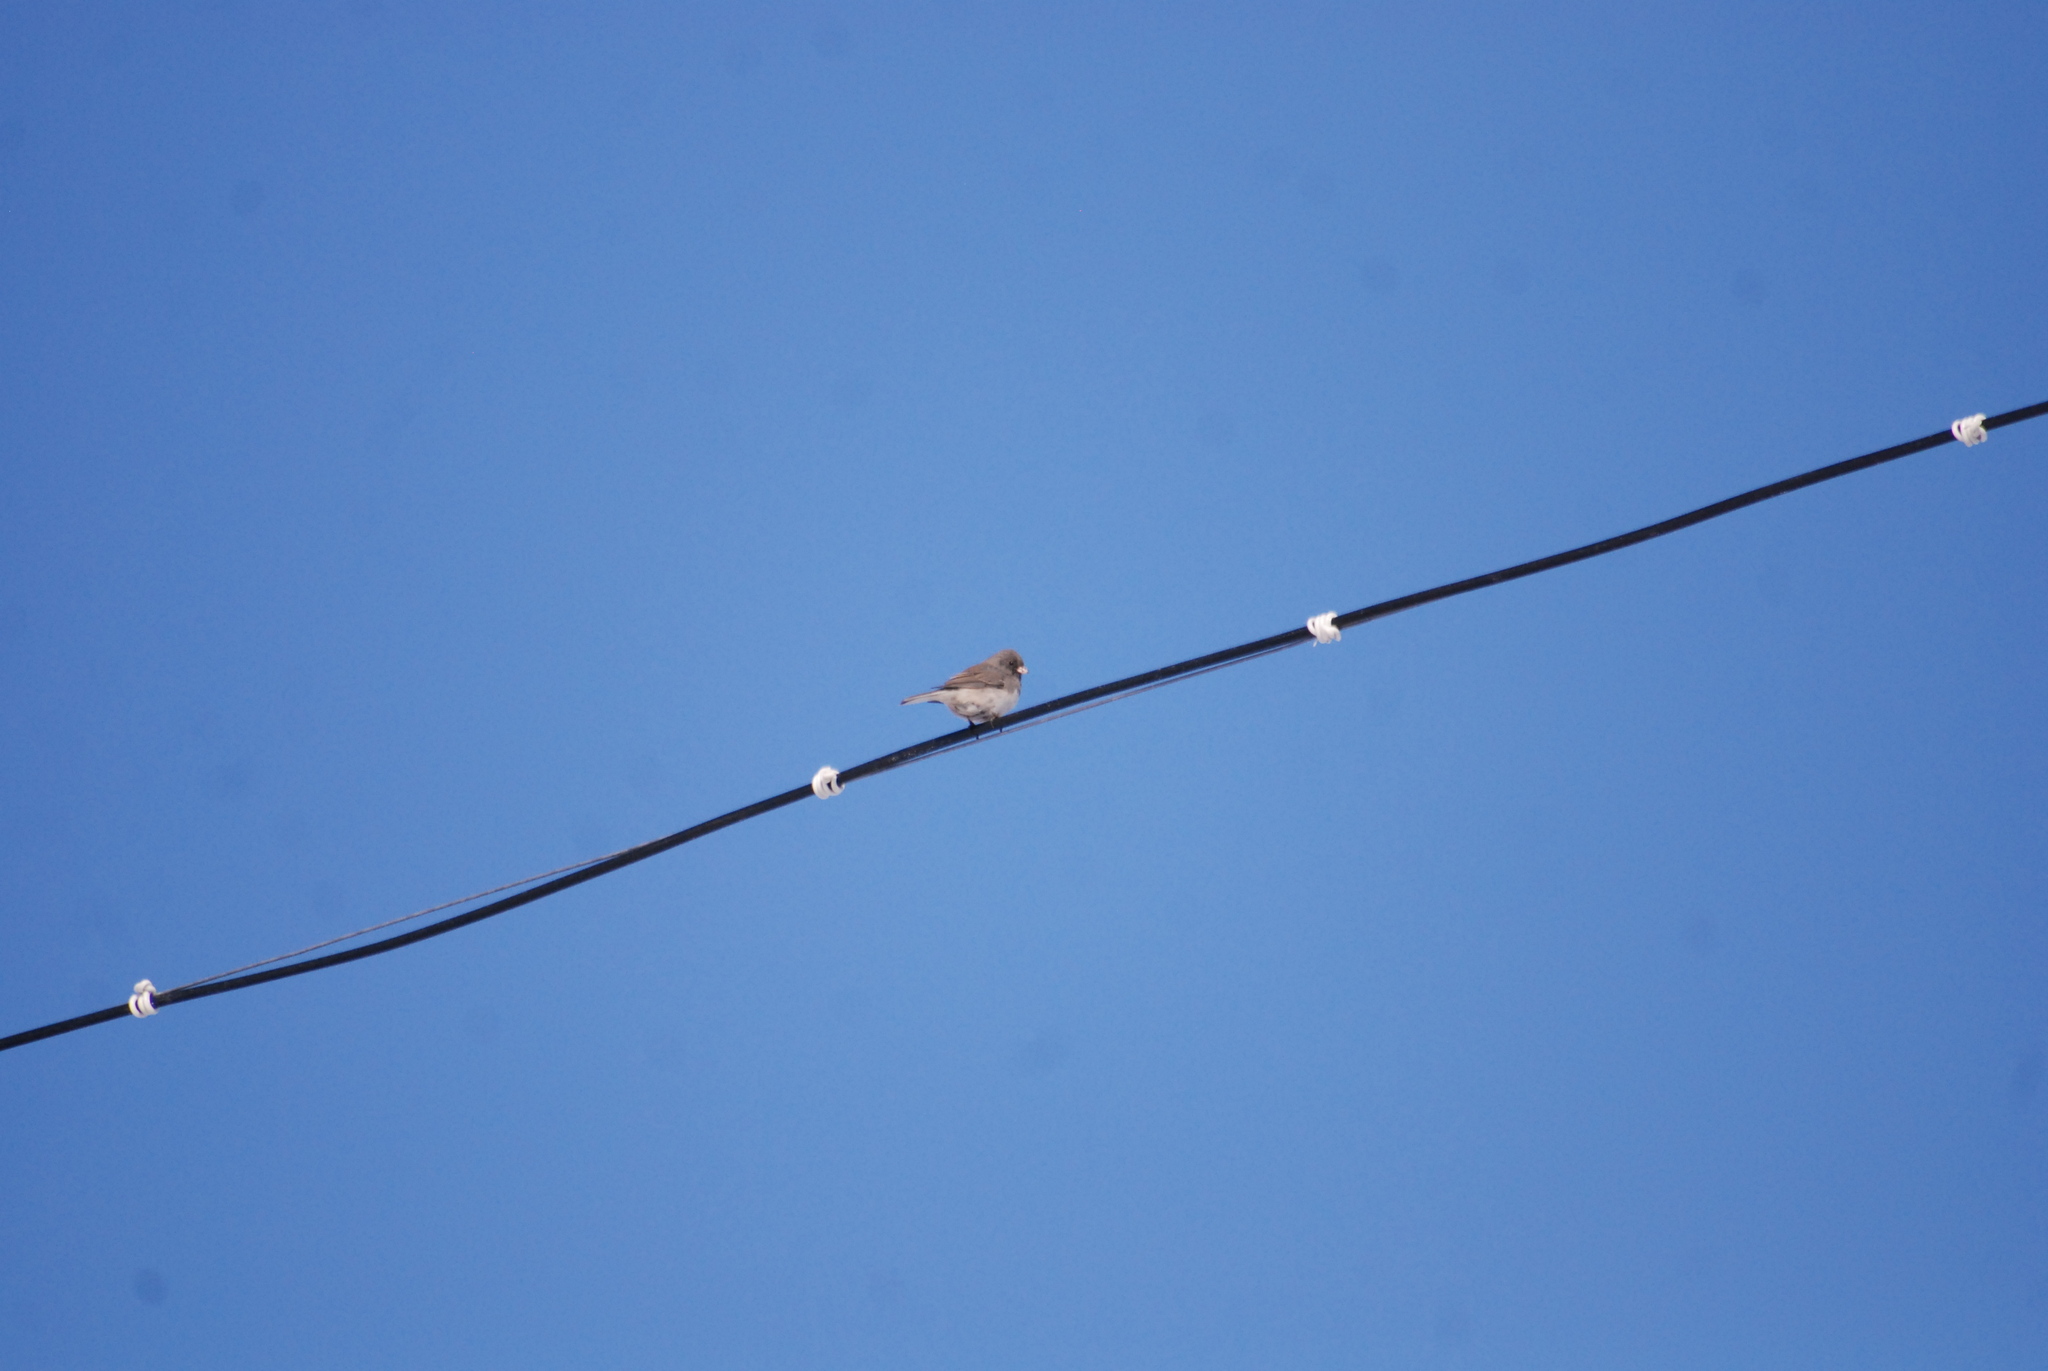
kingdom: Animalia
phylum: Chordata
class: Aves
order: Passeriformes
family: Passerellidae
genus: Junco
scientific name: Junco hyemalis
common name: Dark-eyed junco
